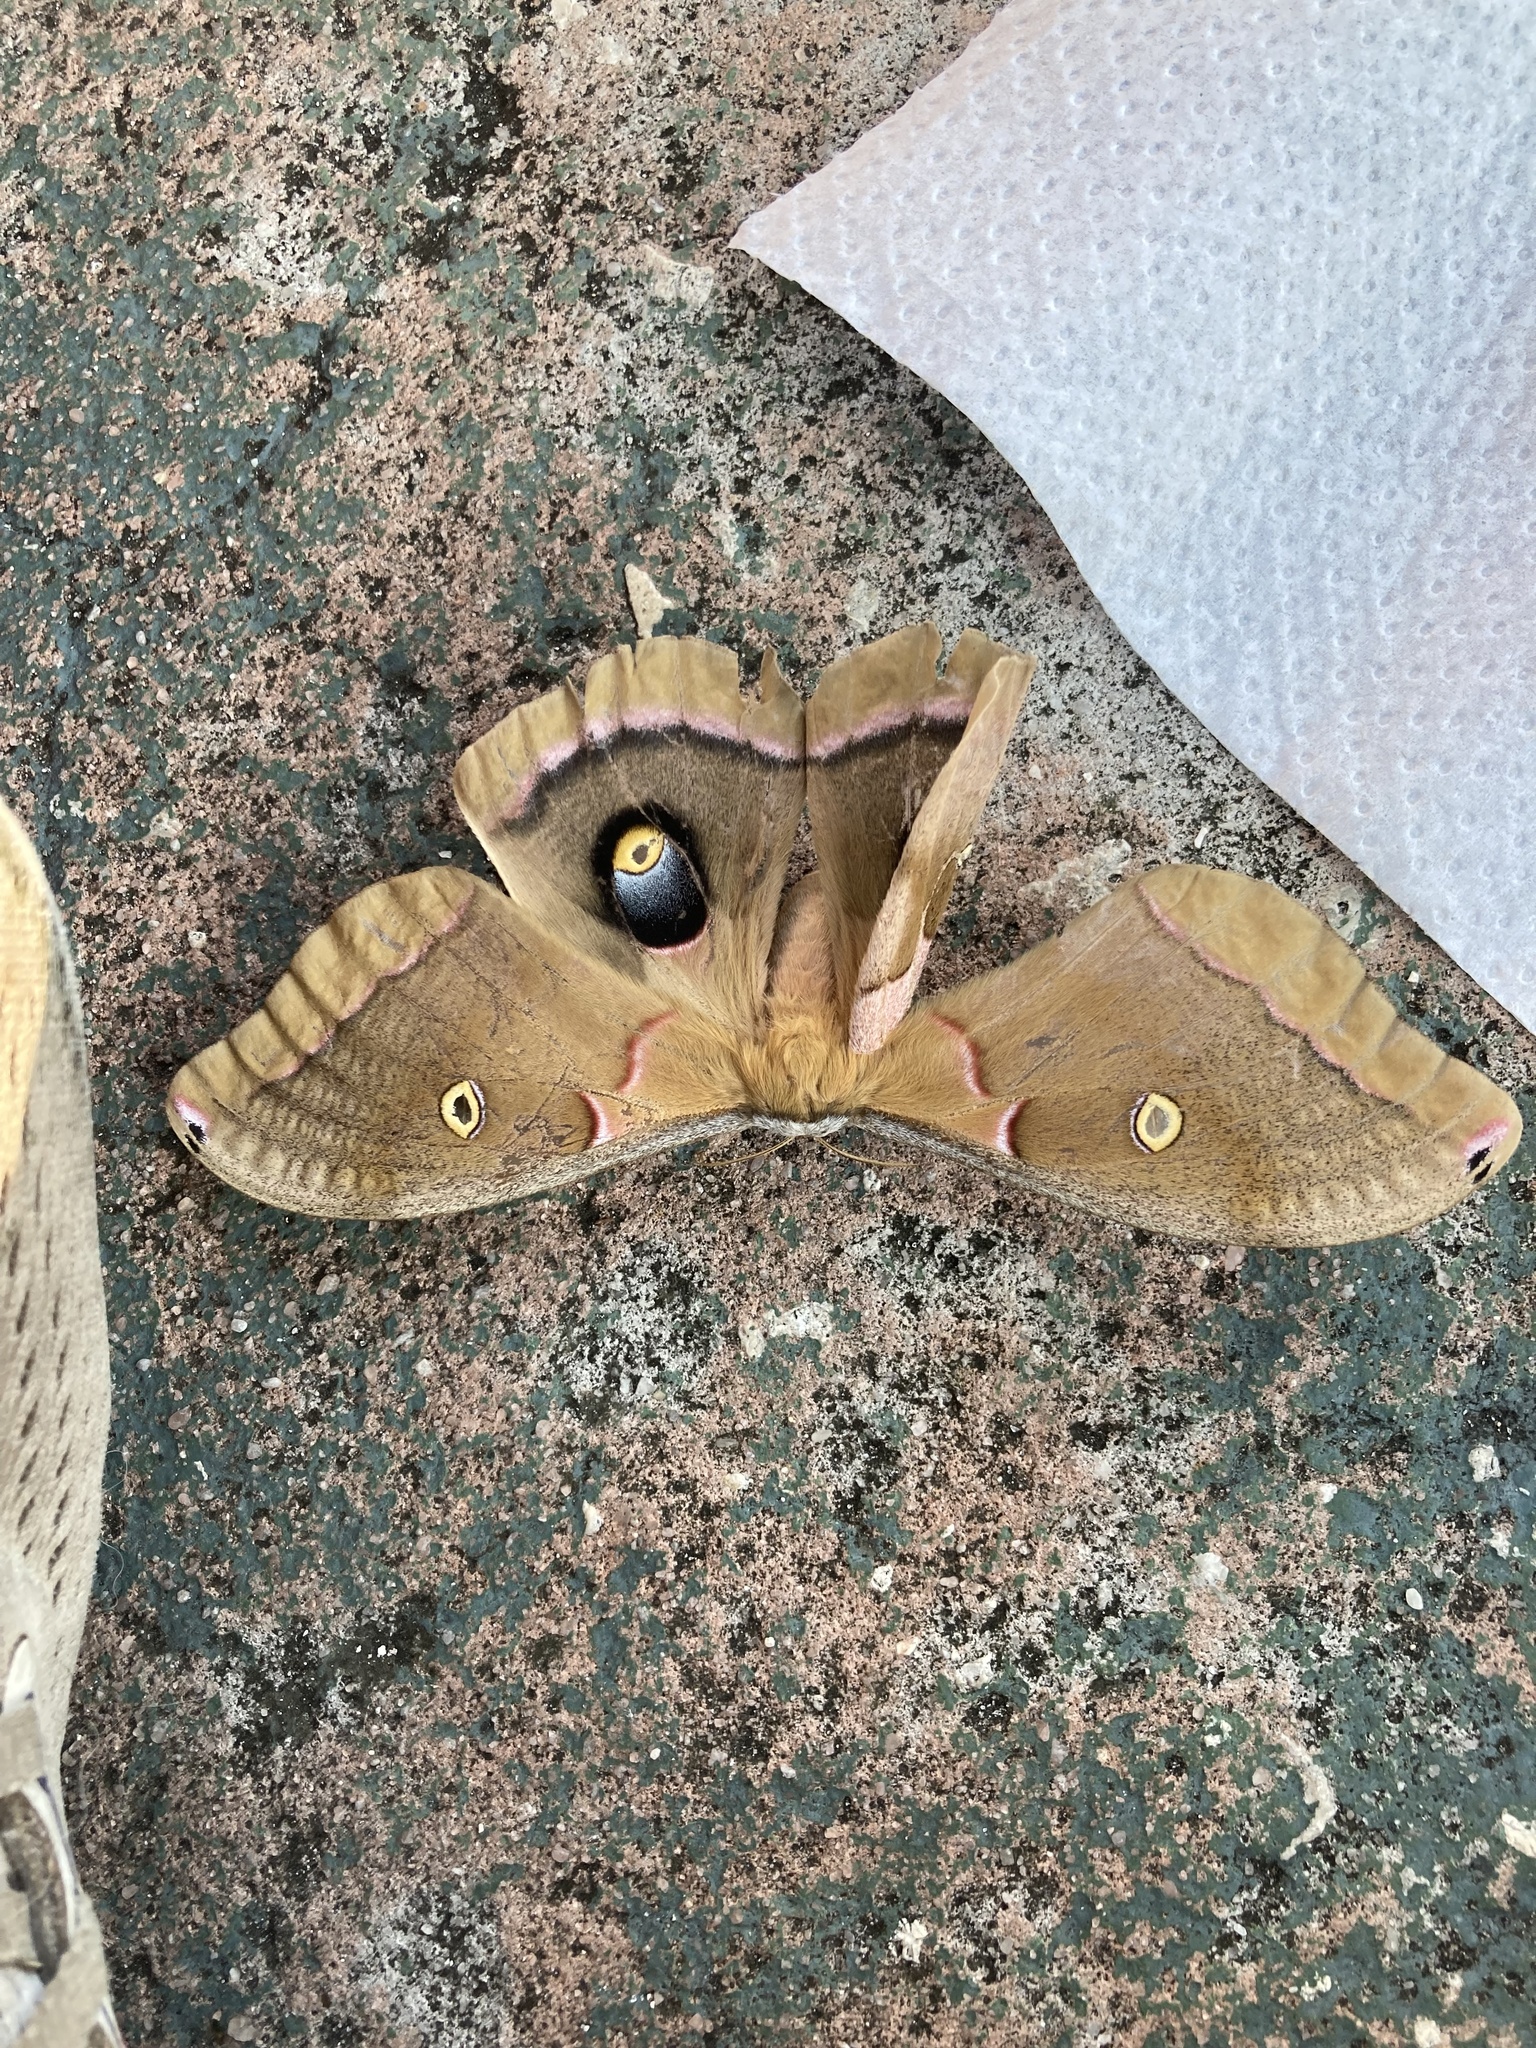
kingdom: Animalia
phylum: Arthropoda
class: Insecta
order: Lepidoptera
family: Saturniidae
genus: Antheraea
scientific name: Antheraea polyphemus
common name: Polyphemus moth
